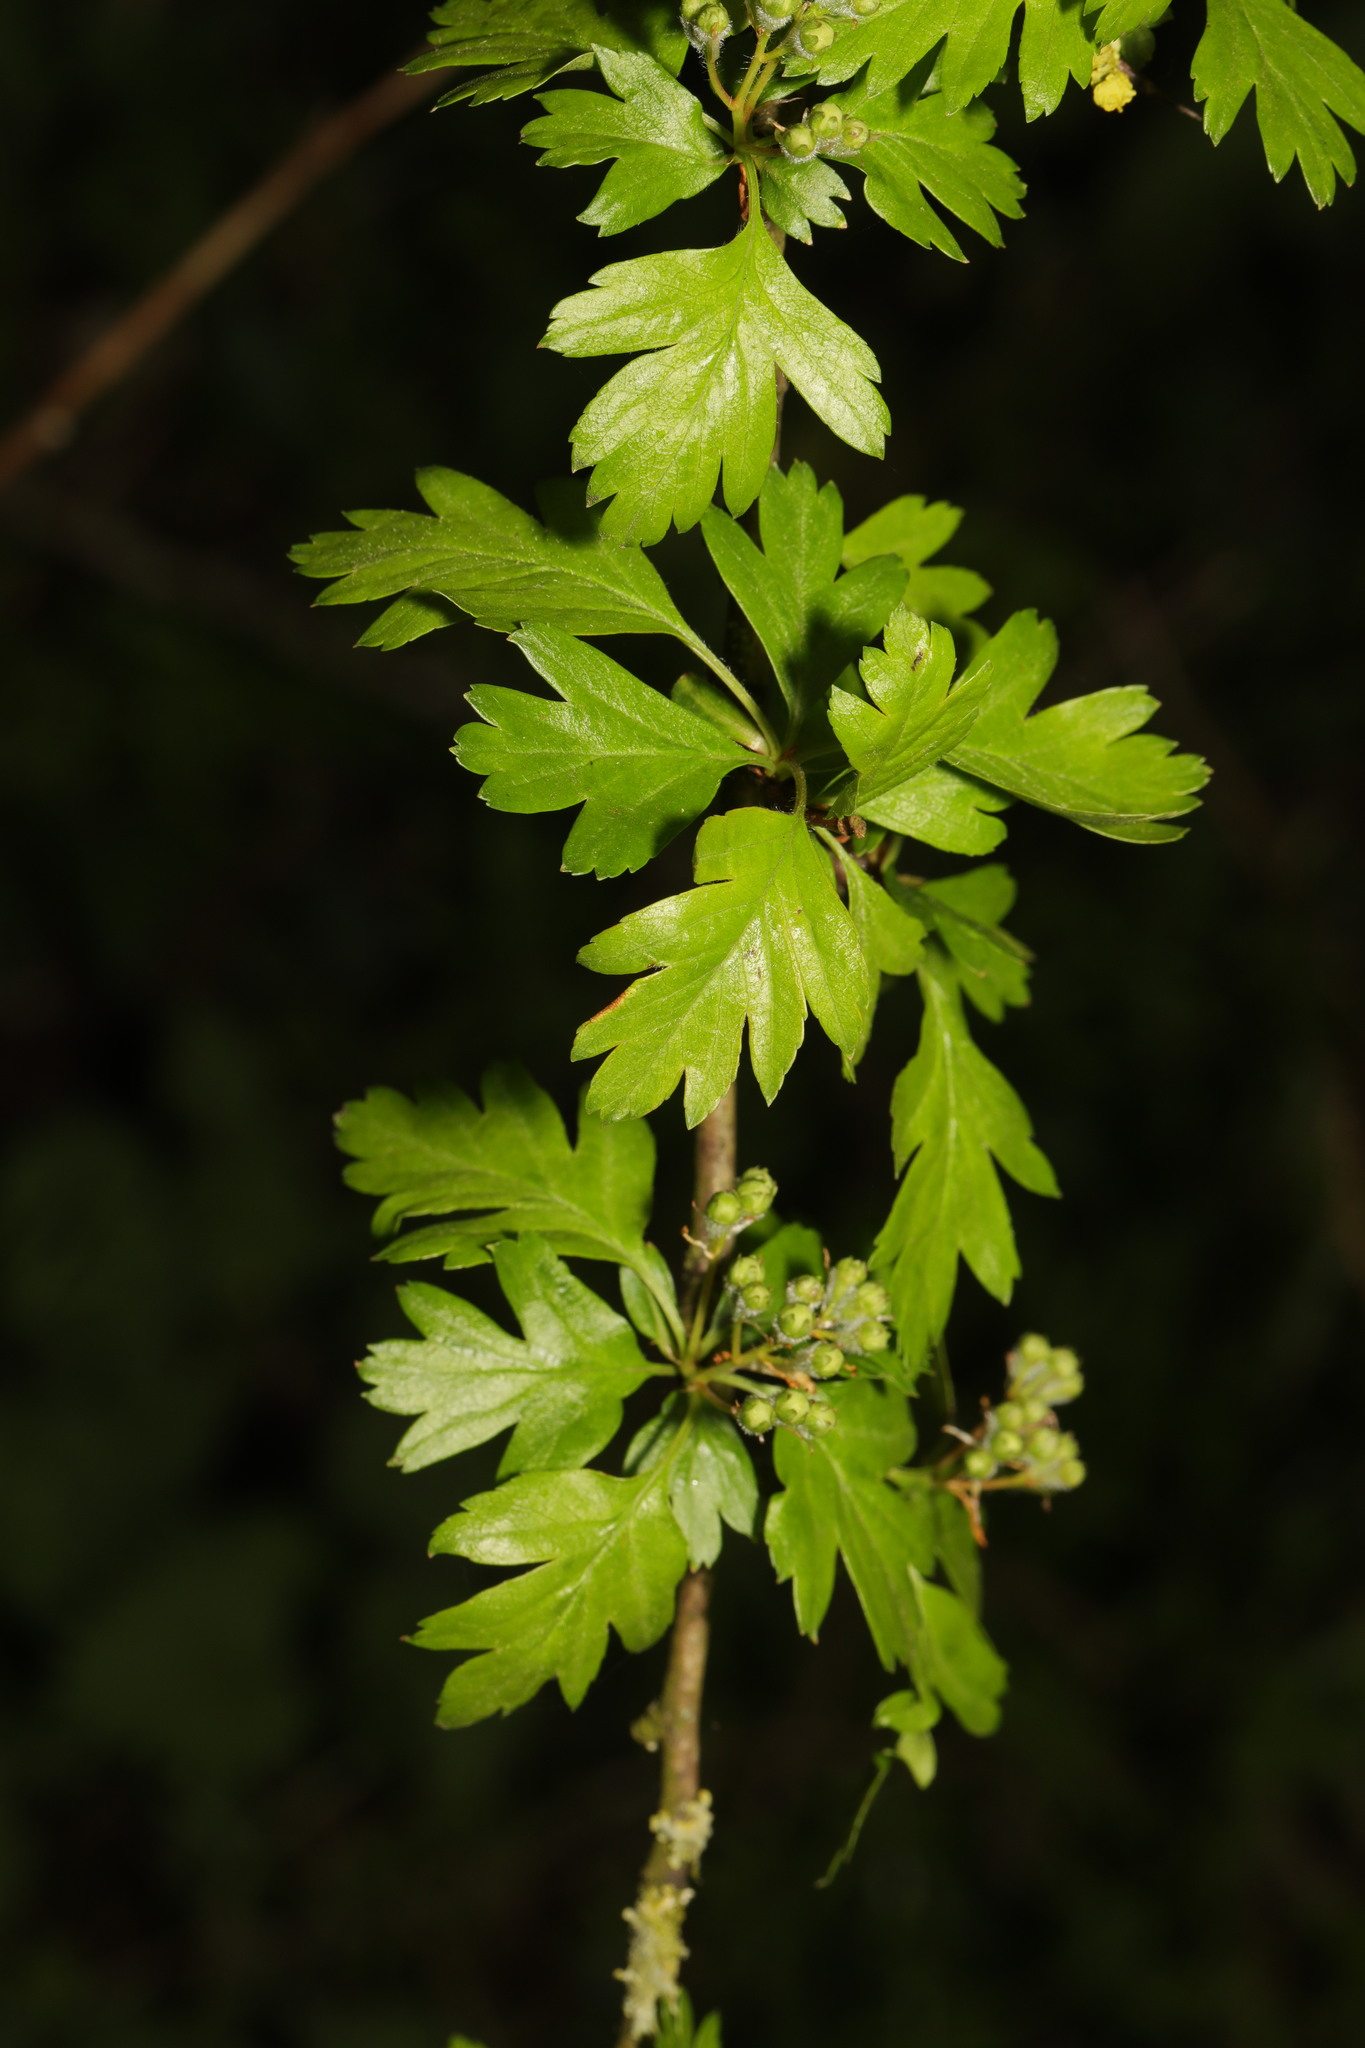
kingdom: Plantae
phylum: Tracheophyta
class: Magnoliopsida
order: Rosales
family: Rosaceae
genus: Crataegus
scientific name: Crataegus monogyna
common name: Hawthorn
